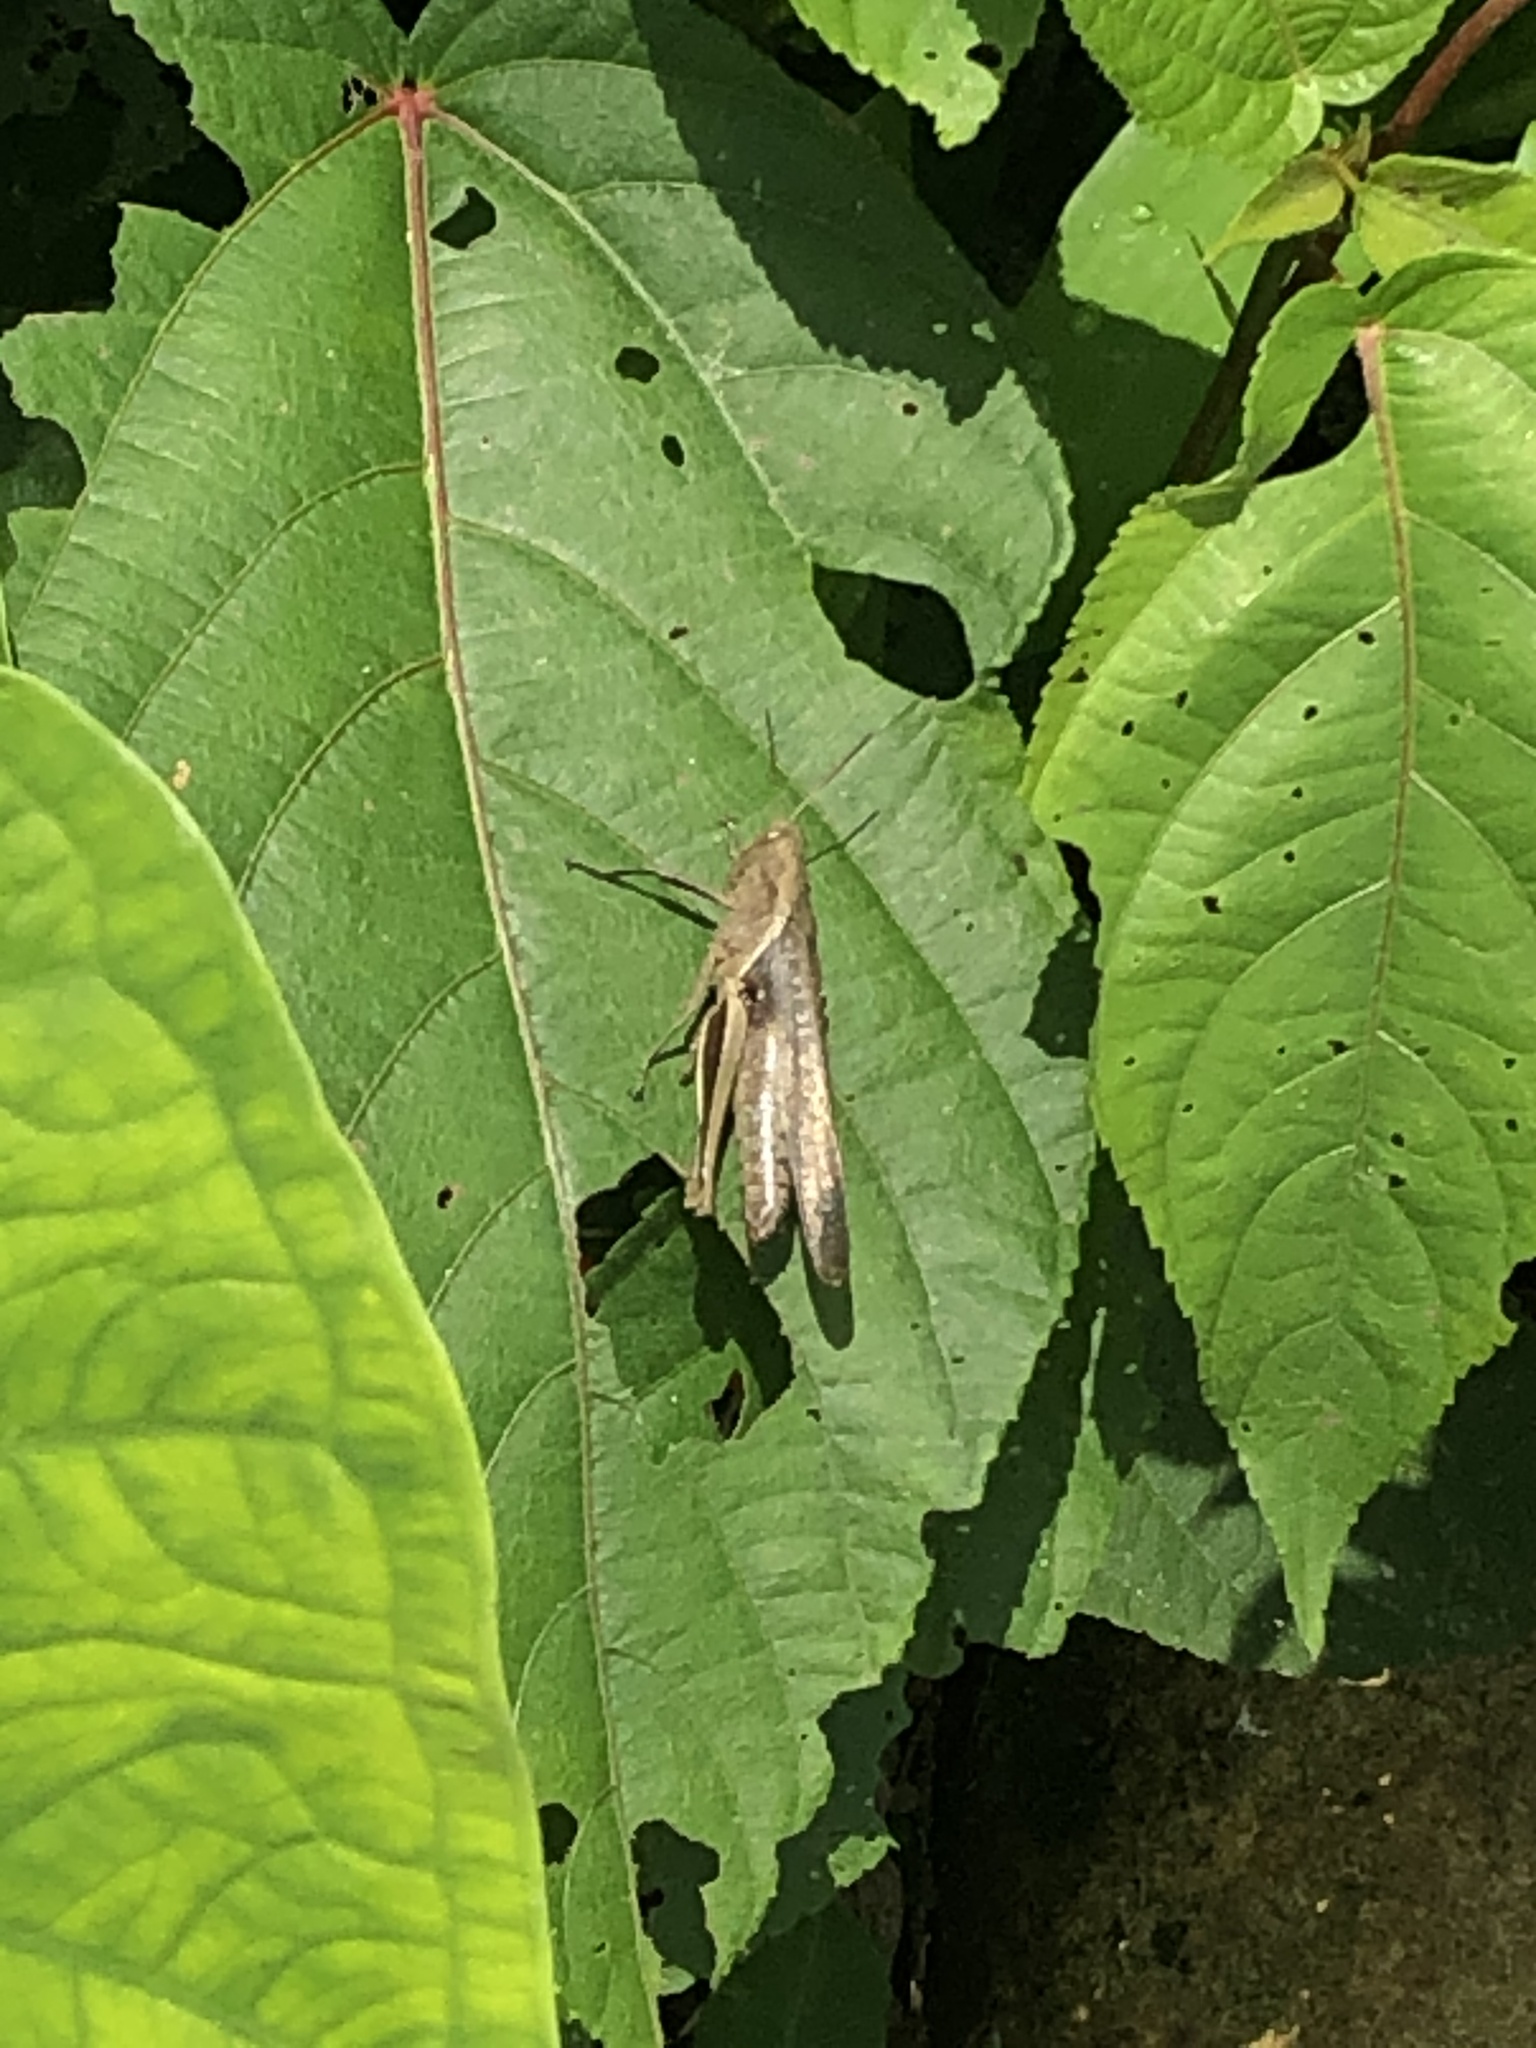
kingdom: Animalia
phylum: Arthropoda
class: Insecta
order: Orthoptera
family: Acrididae
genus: Abracris
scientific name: Abracris flavolineata
